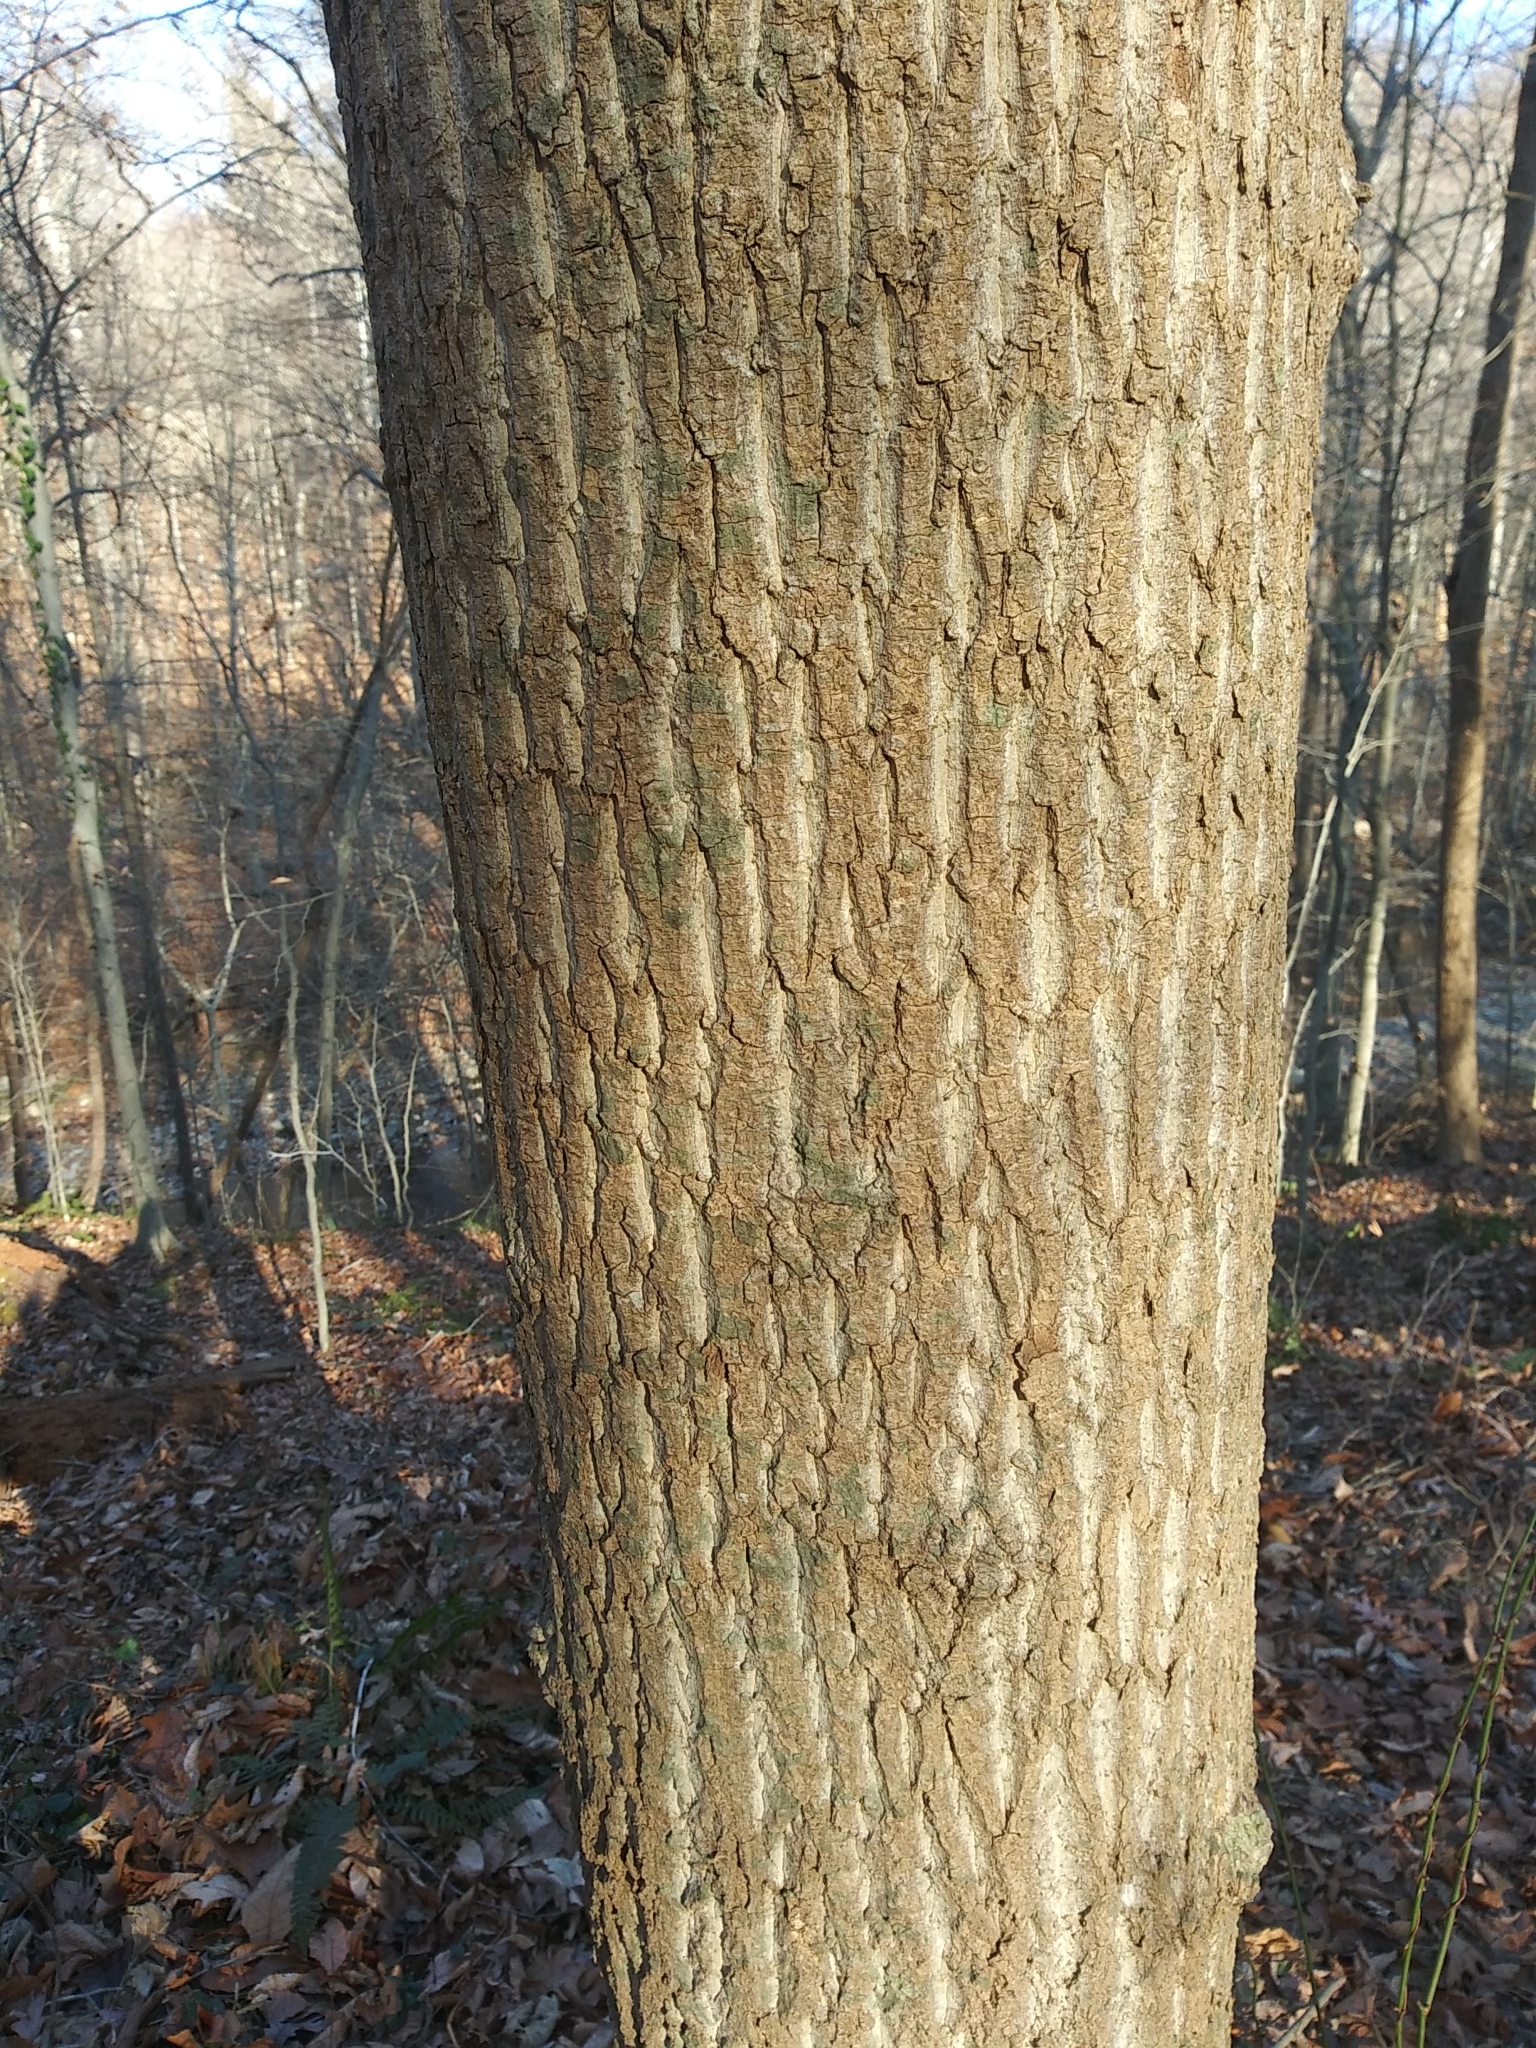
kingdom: Plantae
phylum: Tracheophyta
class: Magnoliopsida
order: Magnoliales
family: Magnoliaceae
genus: Liriodendron
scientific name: Liriodendron tulipifera
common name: Tulip tree
